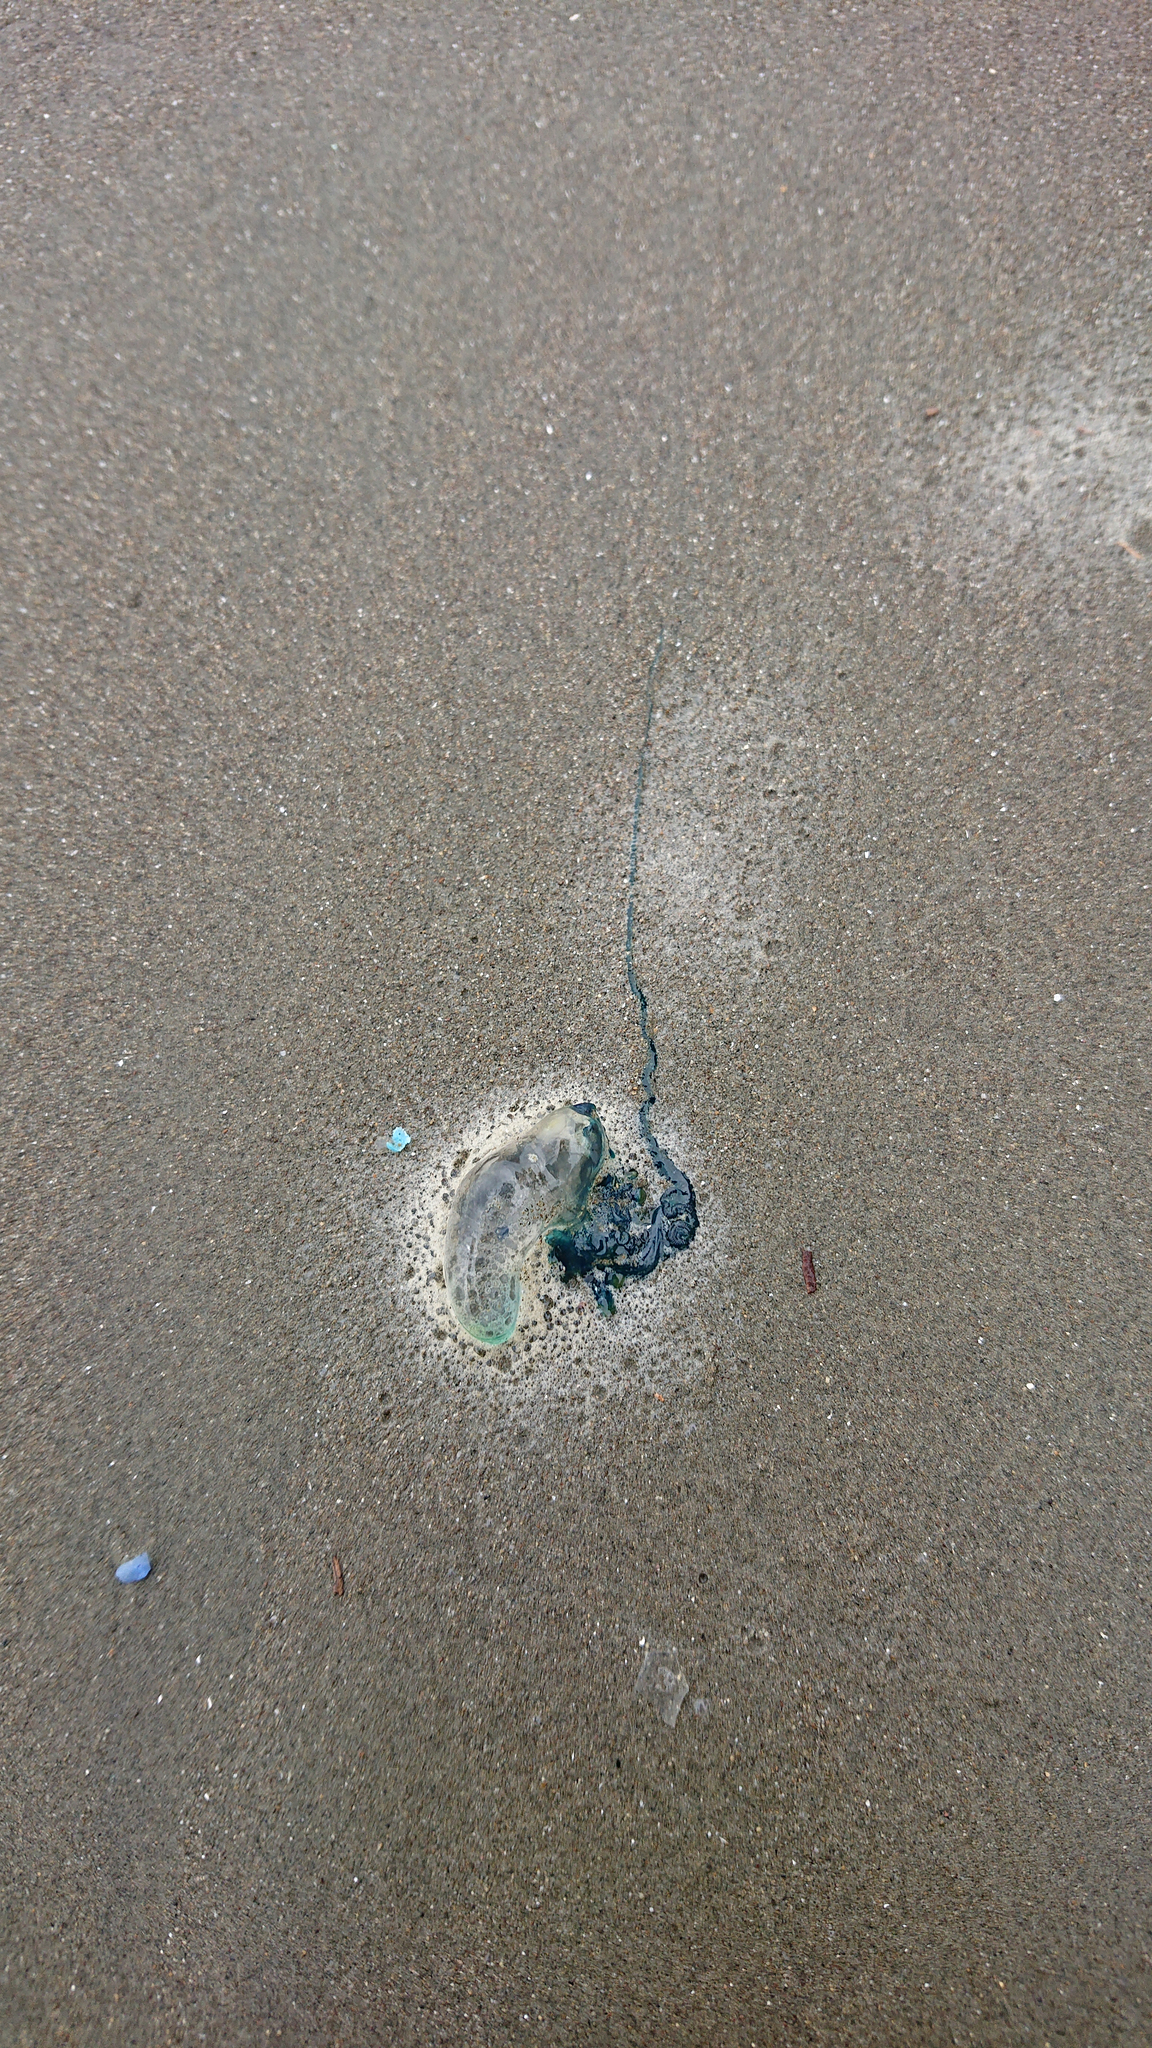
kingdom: Animalia
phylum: Cnidaria
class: Hydrozoa
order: Siphonophorae
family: Physaliidae
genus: Physalia
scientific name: Physalia physalis
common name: Portuguese man-of-war
